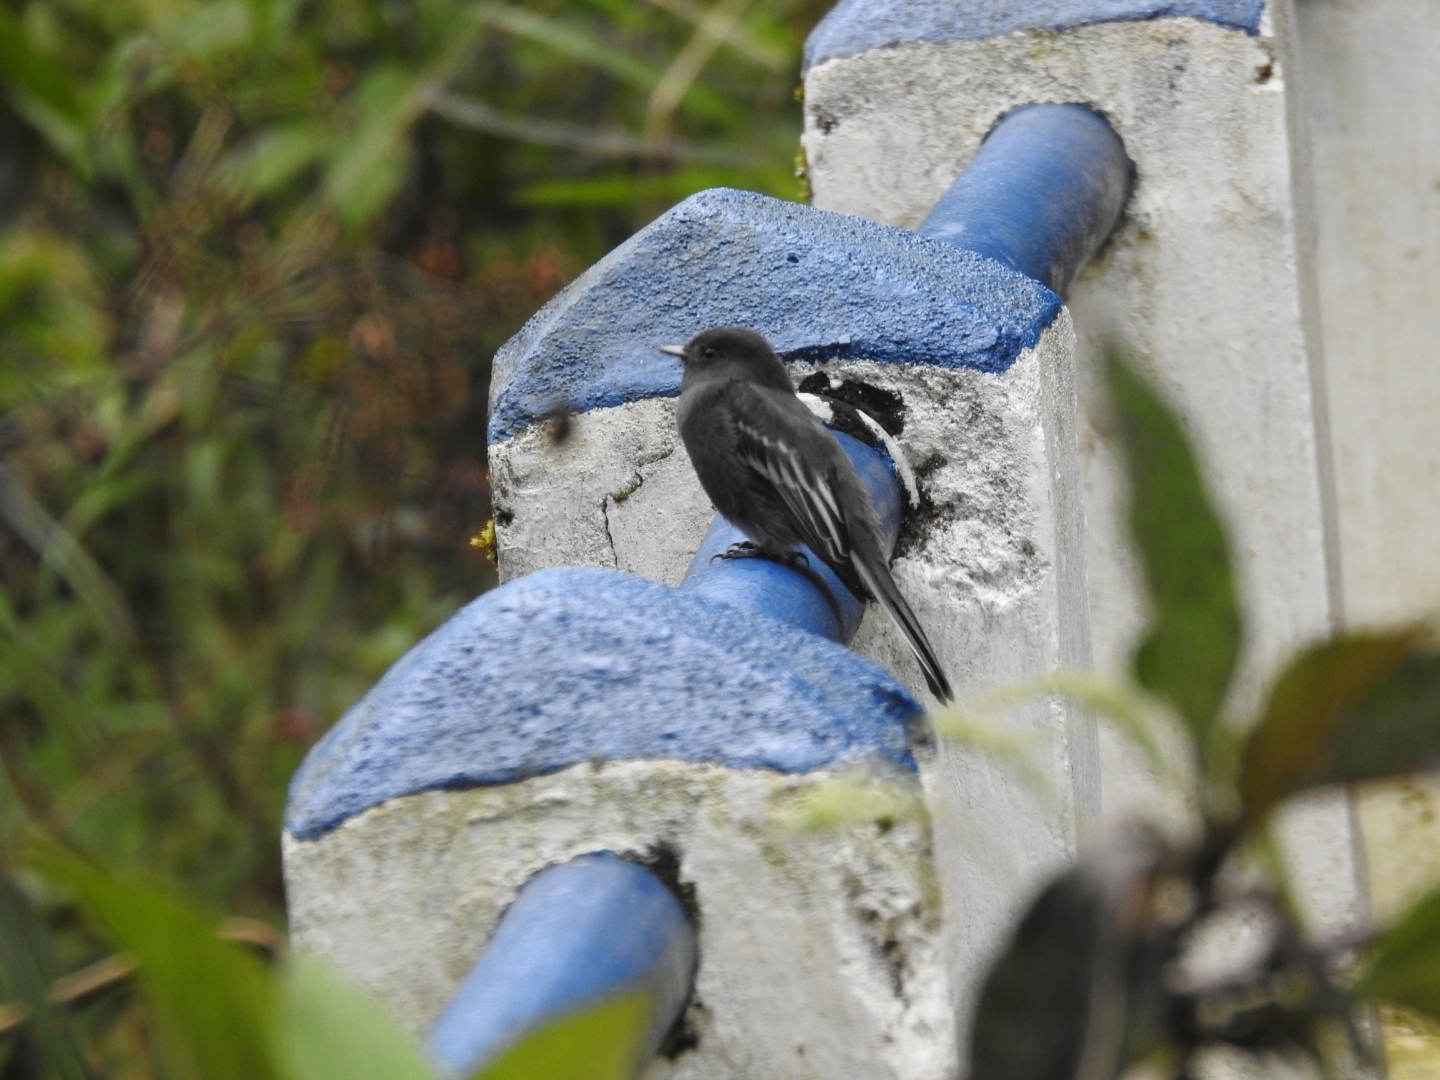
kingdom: Animalia
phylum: Chordata
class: Aves
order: Passeriformes
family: Tyrannidae
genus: Sayornis
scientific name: Sayornis nigricans
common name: Black phoebe
